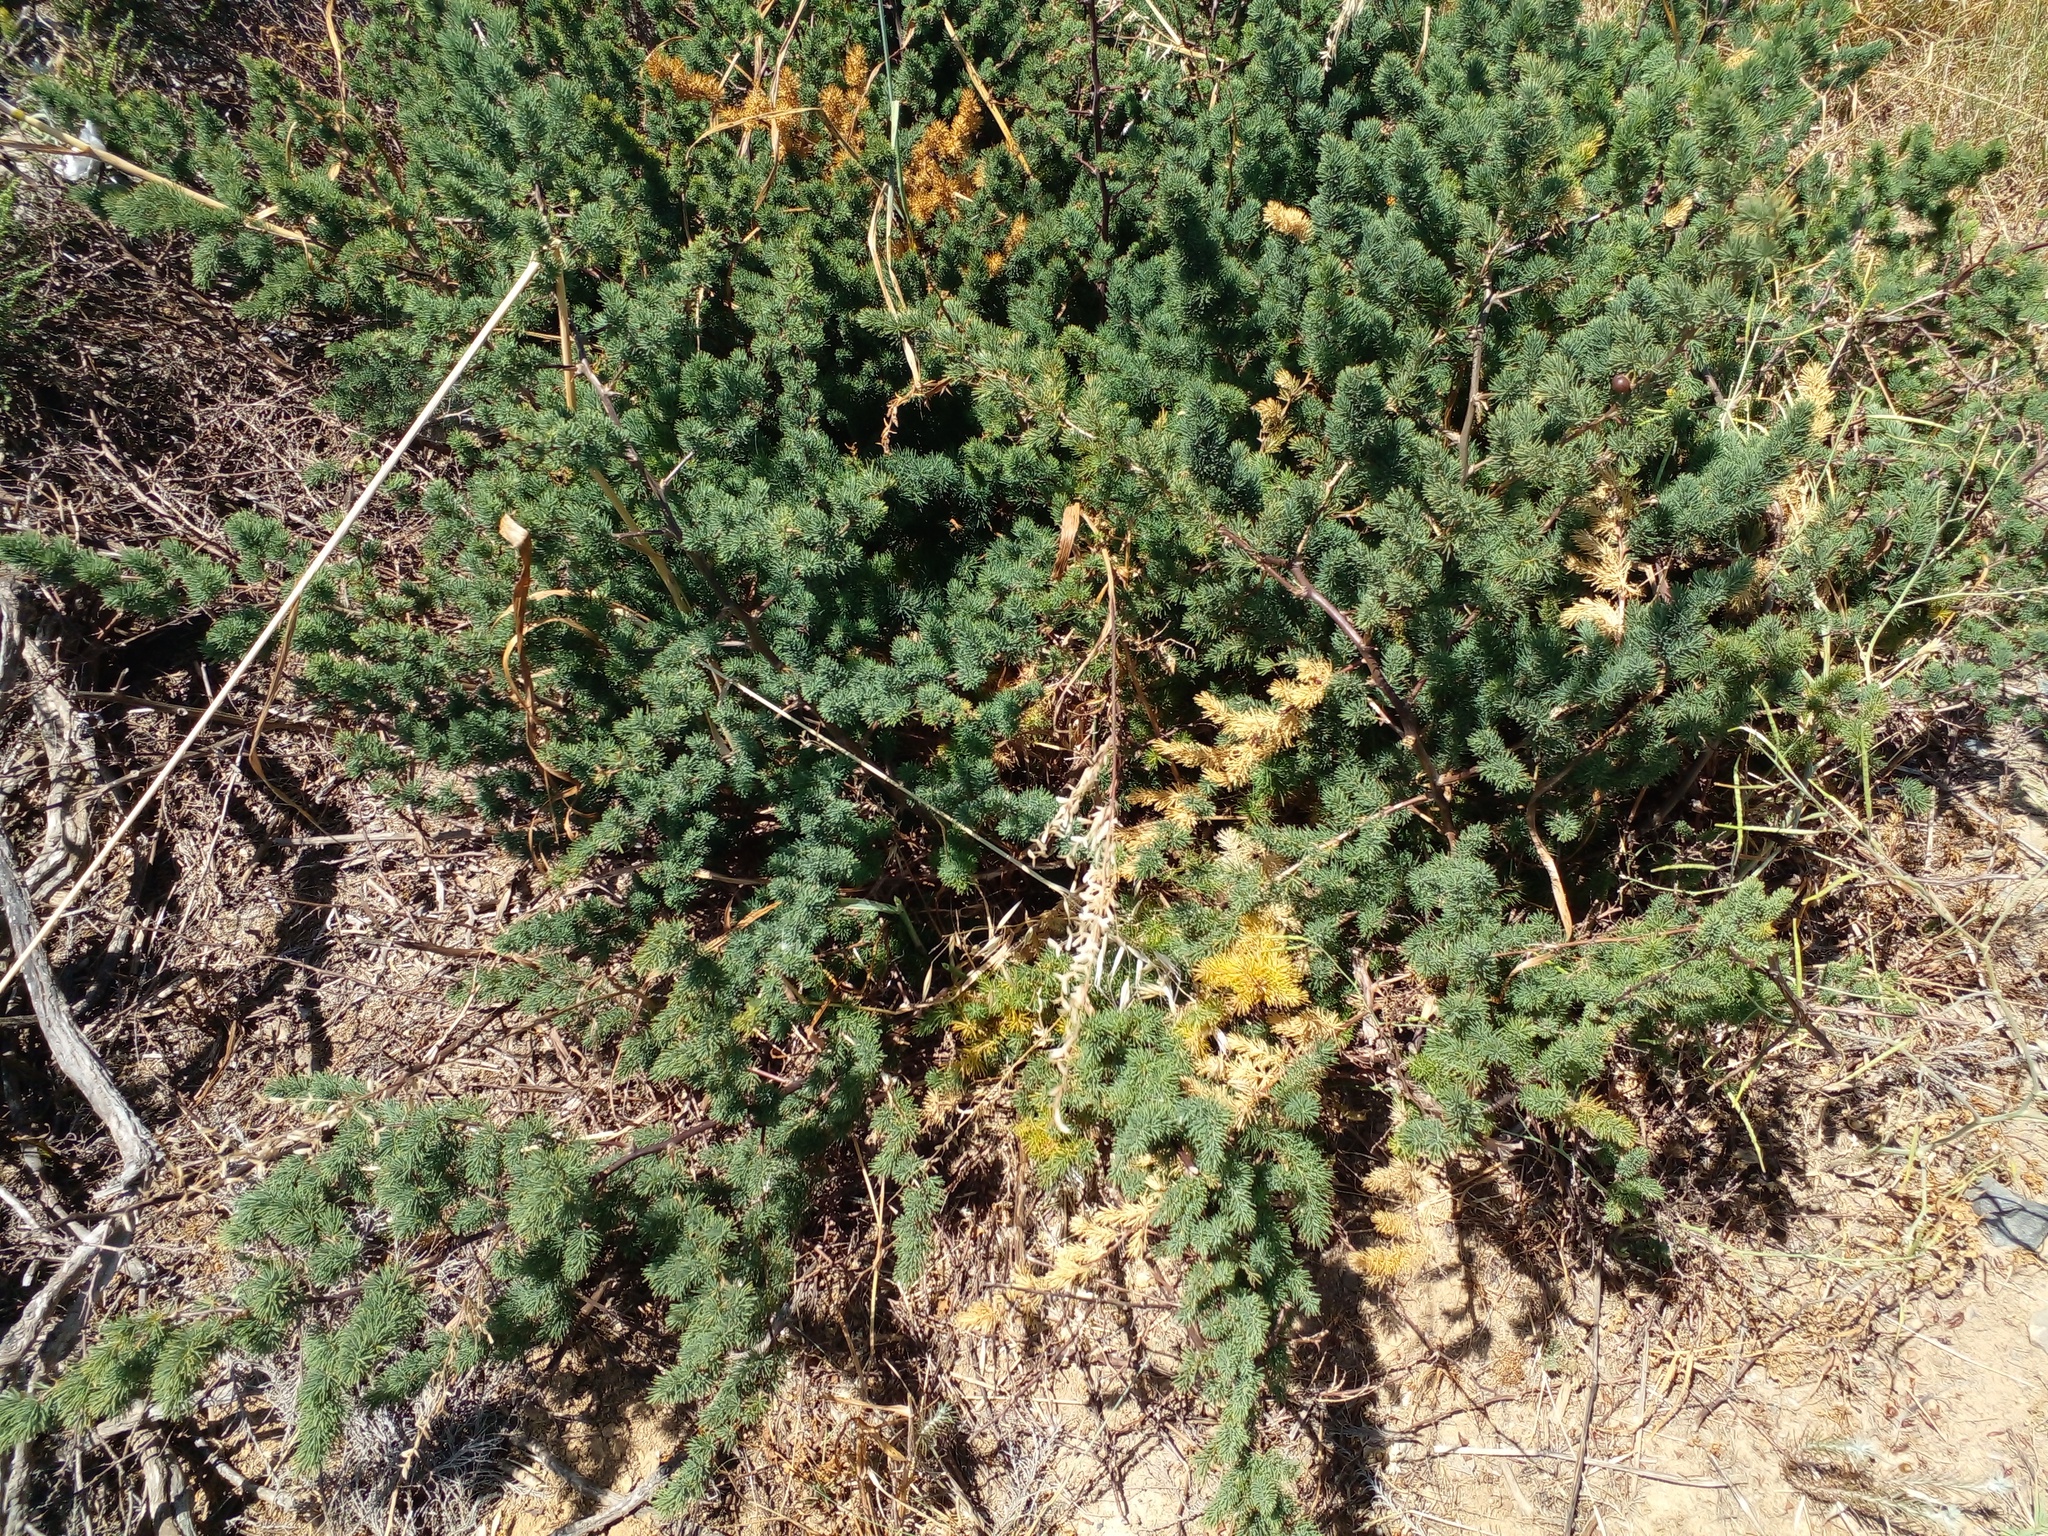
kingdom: Plantae
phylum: Tracheophyta
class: Liliopsida
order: Asparagales
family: Asparagaceae
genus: Asparagus
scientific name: Asparagus rubicundus
